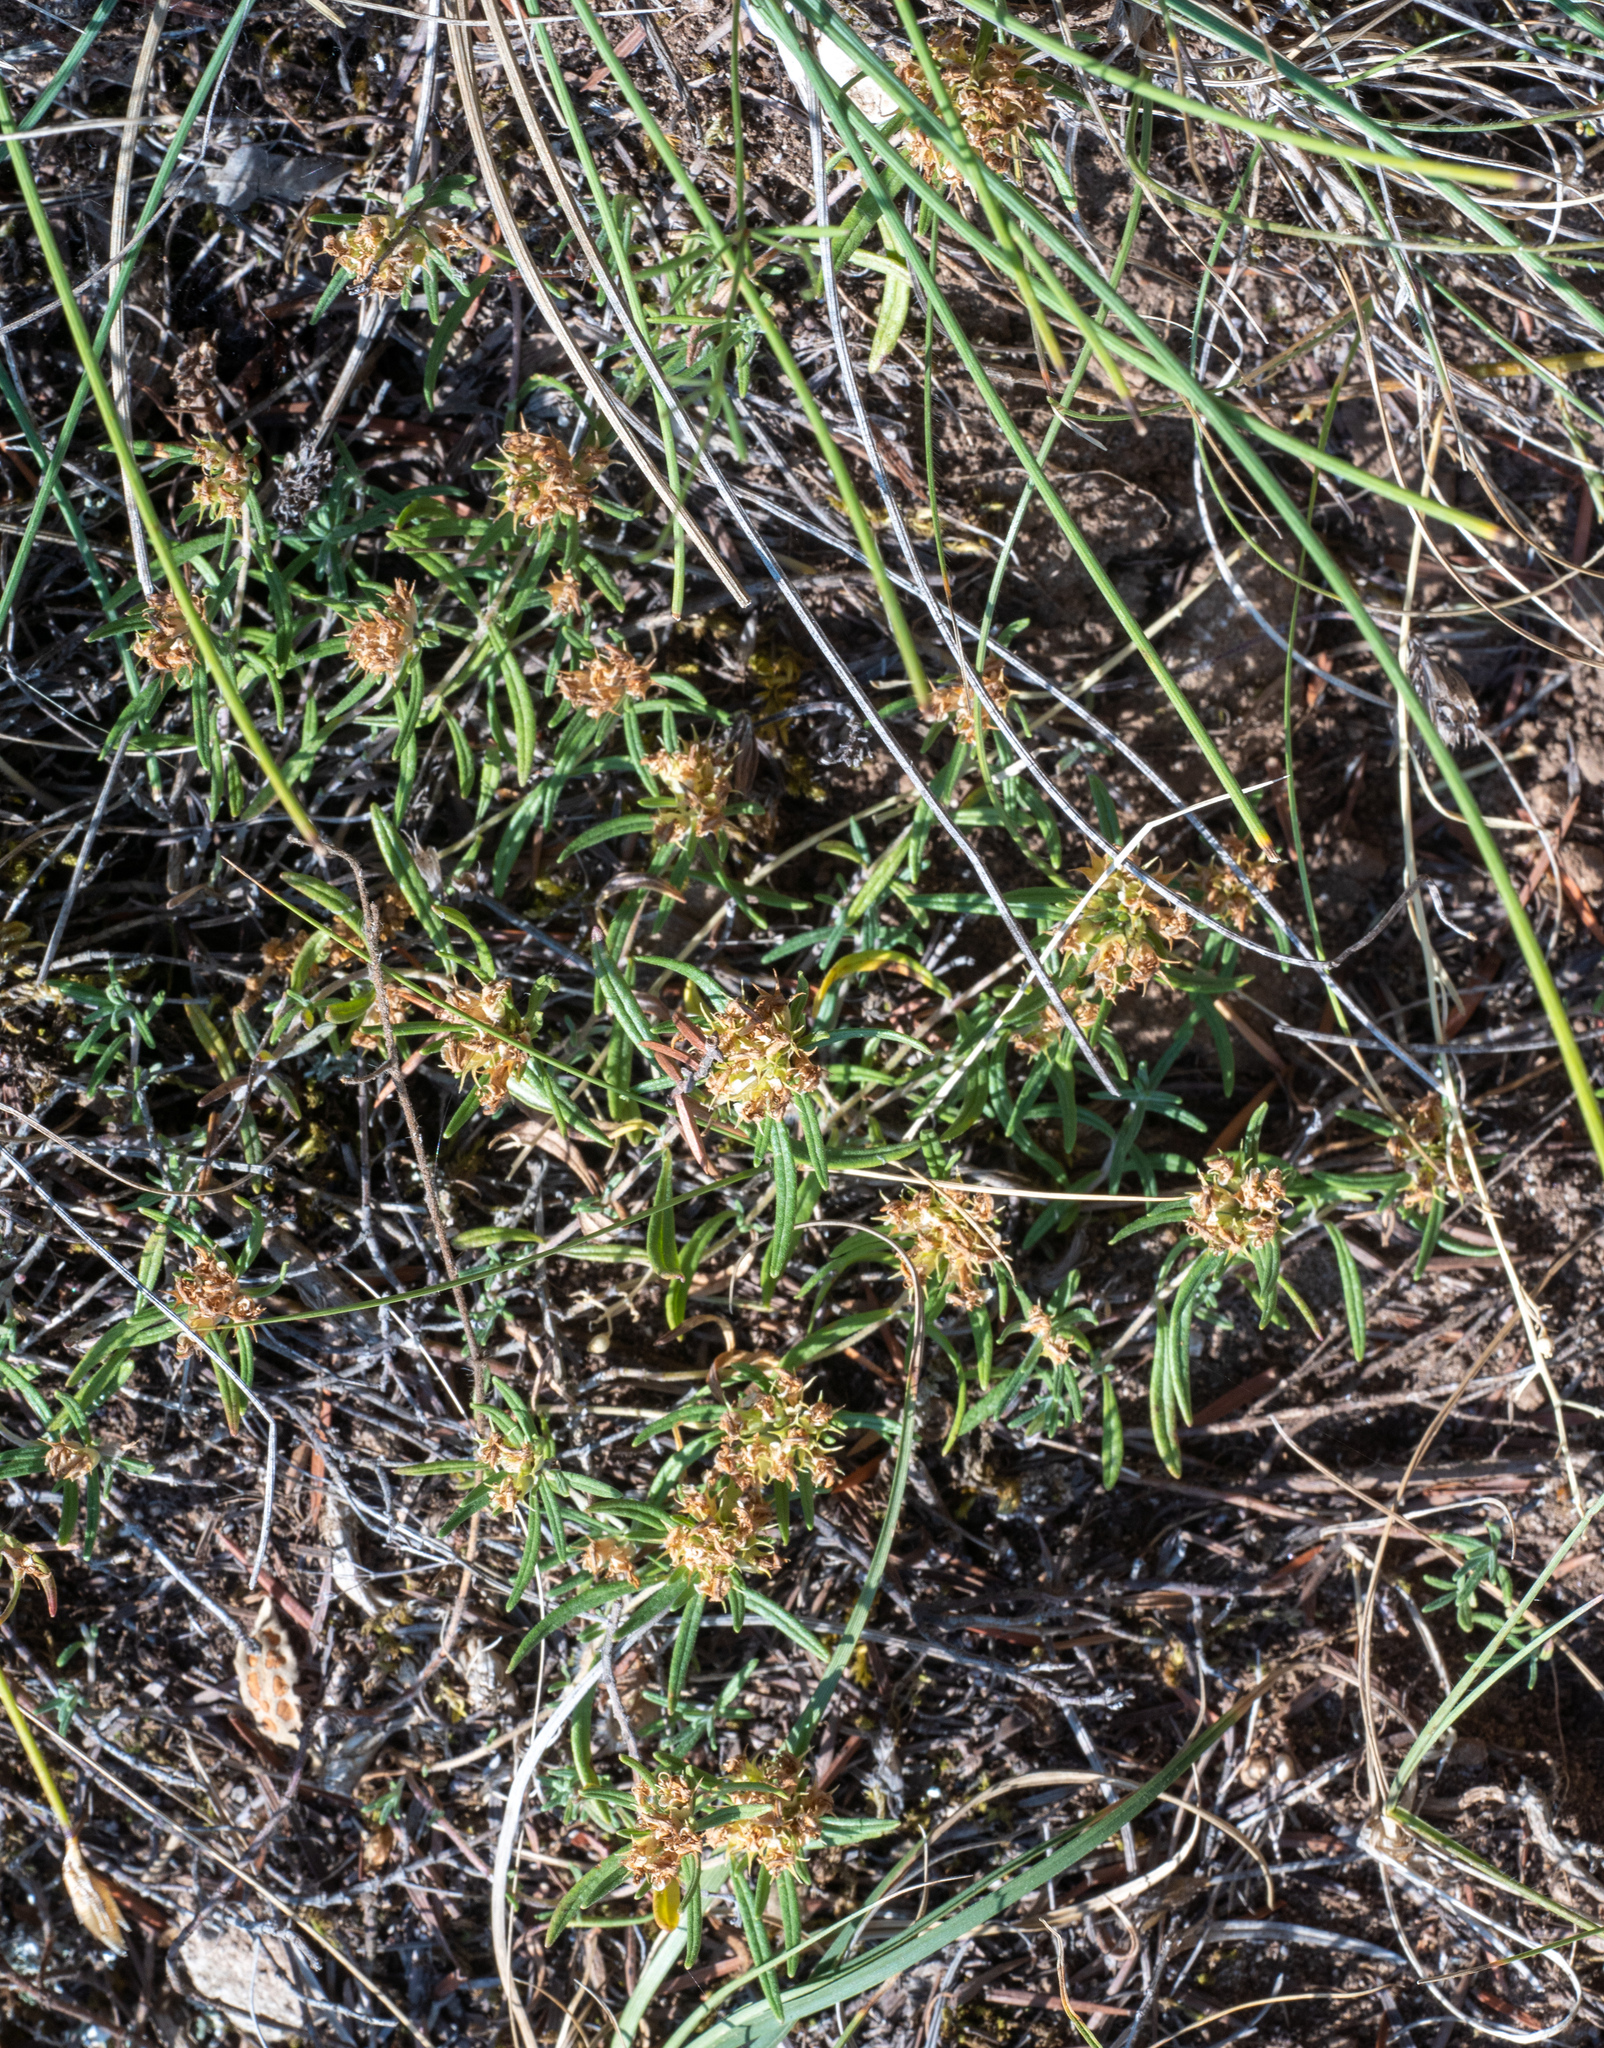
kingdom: Plantae
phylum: Tracheophyta
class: Magnoliopsida
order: Lamiales
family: Lamiaceae
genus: Teucrium
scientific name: Teucrium montanum
